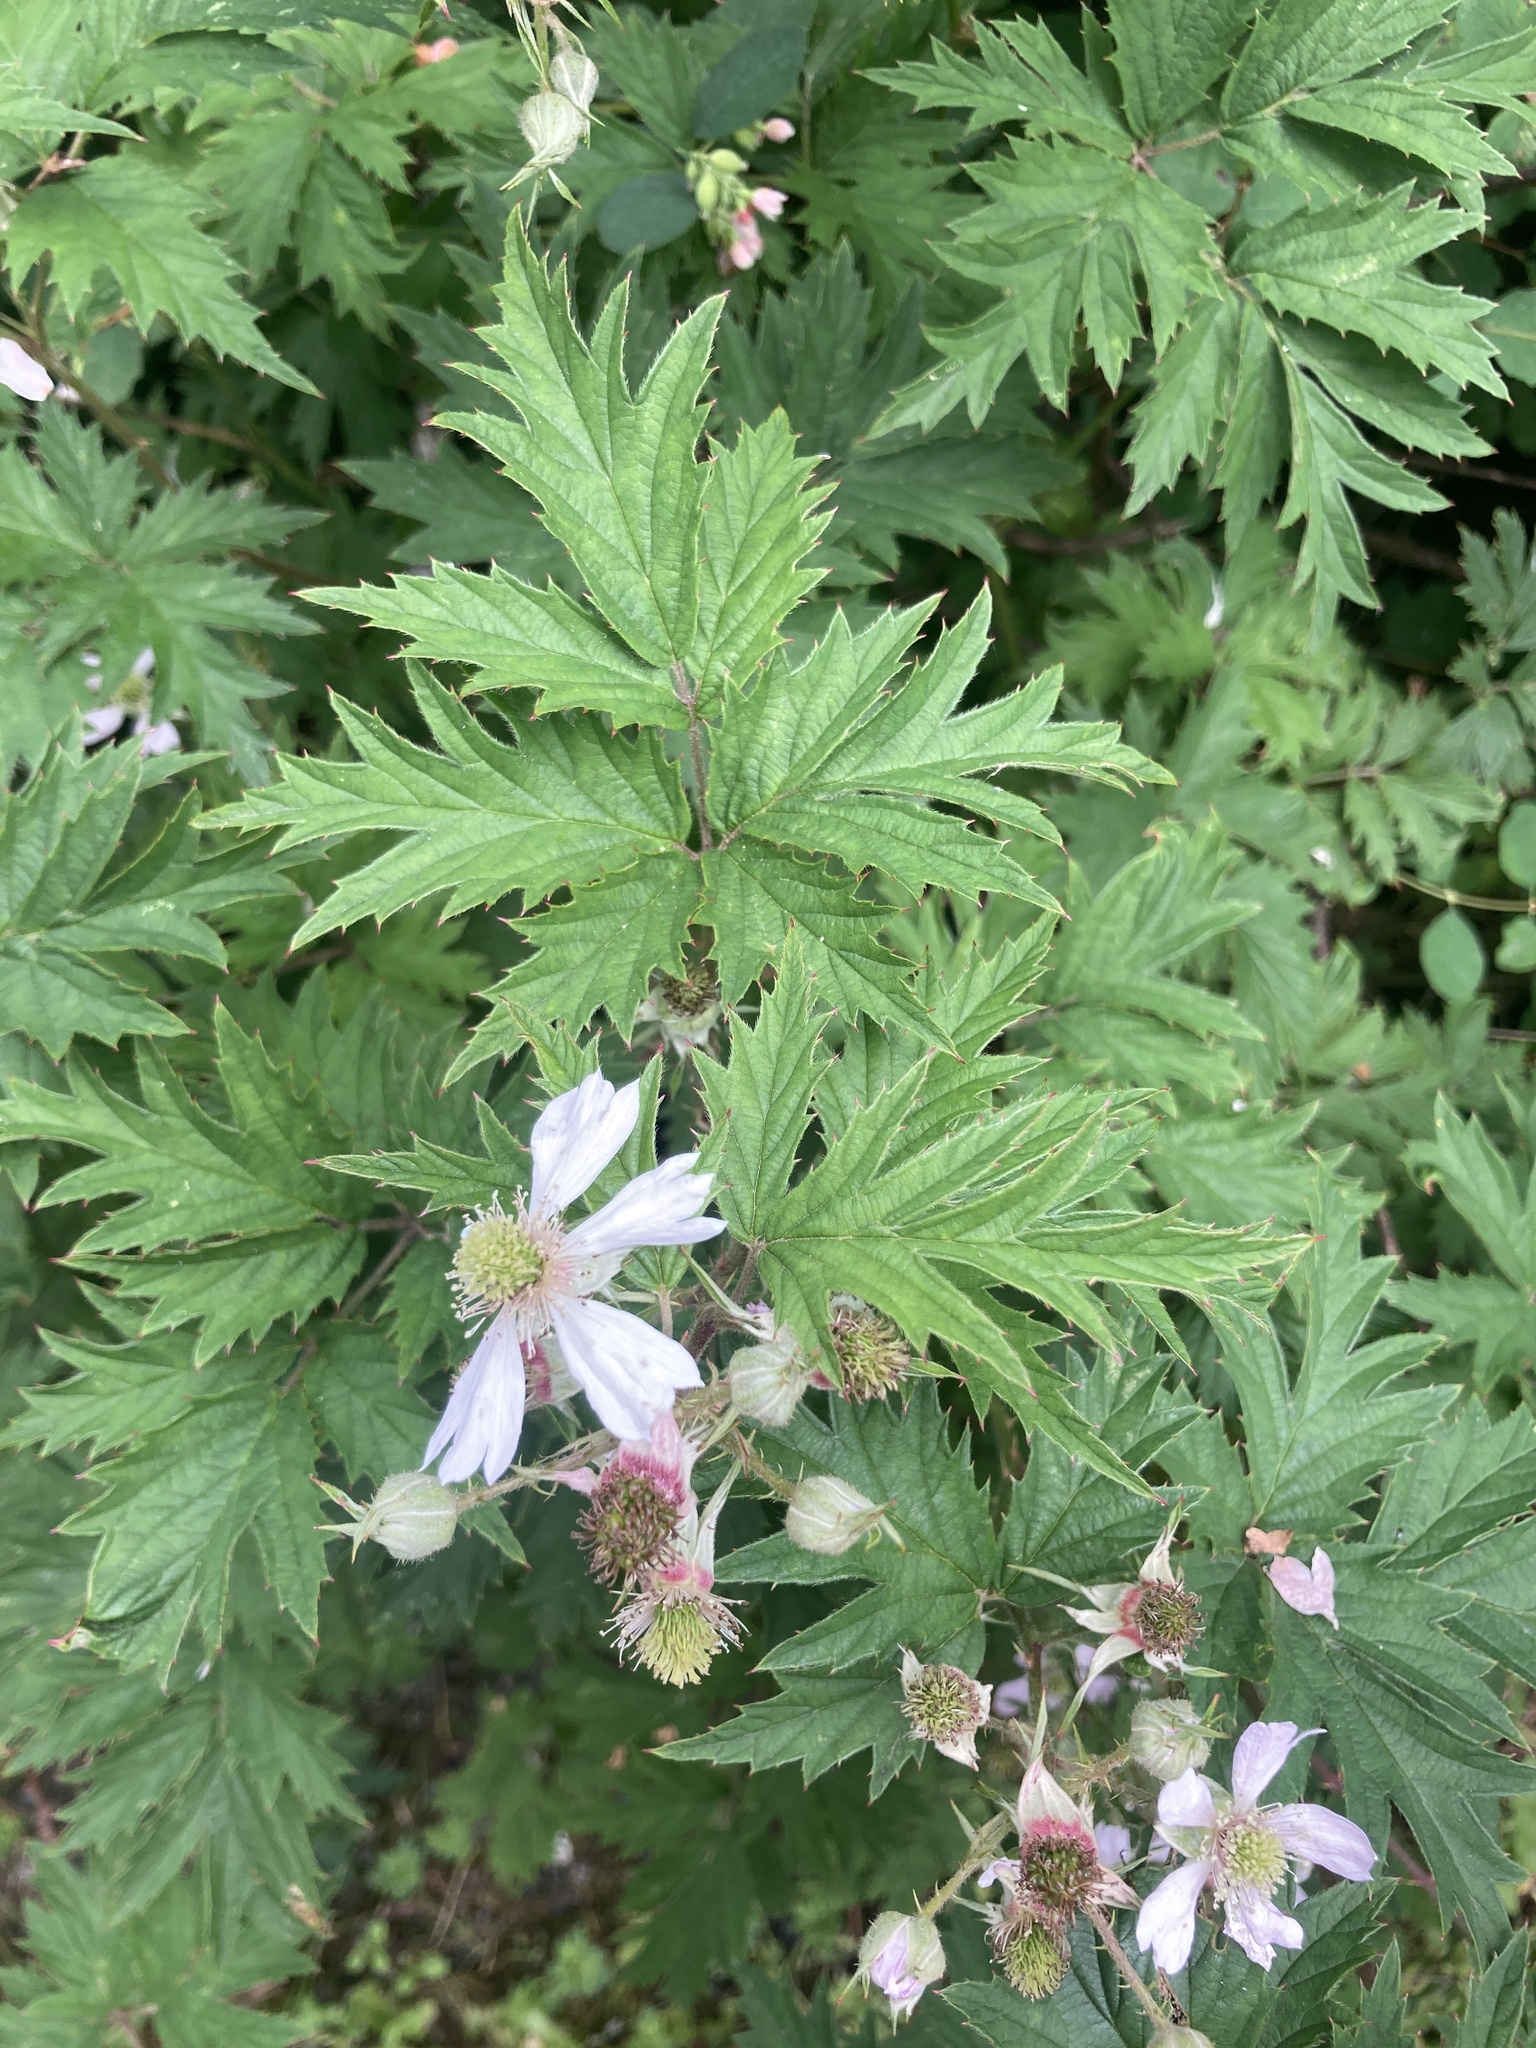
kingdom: Plantae
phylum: Tracheophyta
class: Magnoliopsida
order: Rosales
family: Rosaceae
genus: Rubus
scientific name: Rubus laciniatus
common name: Evergreen blackberry
